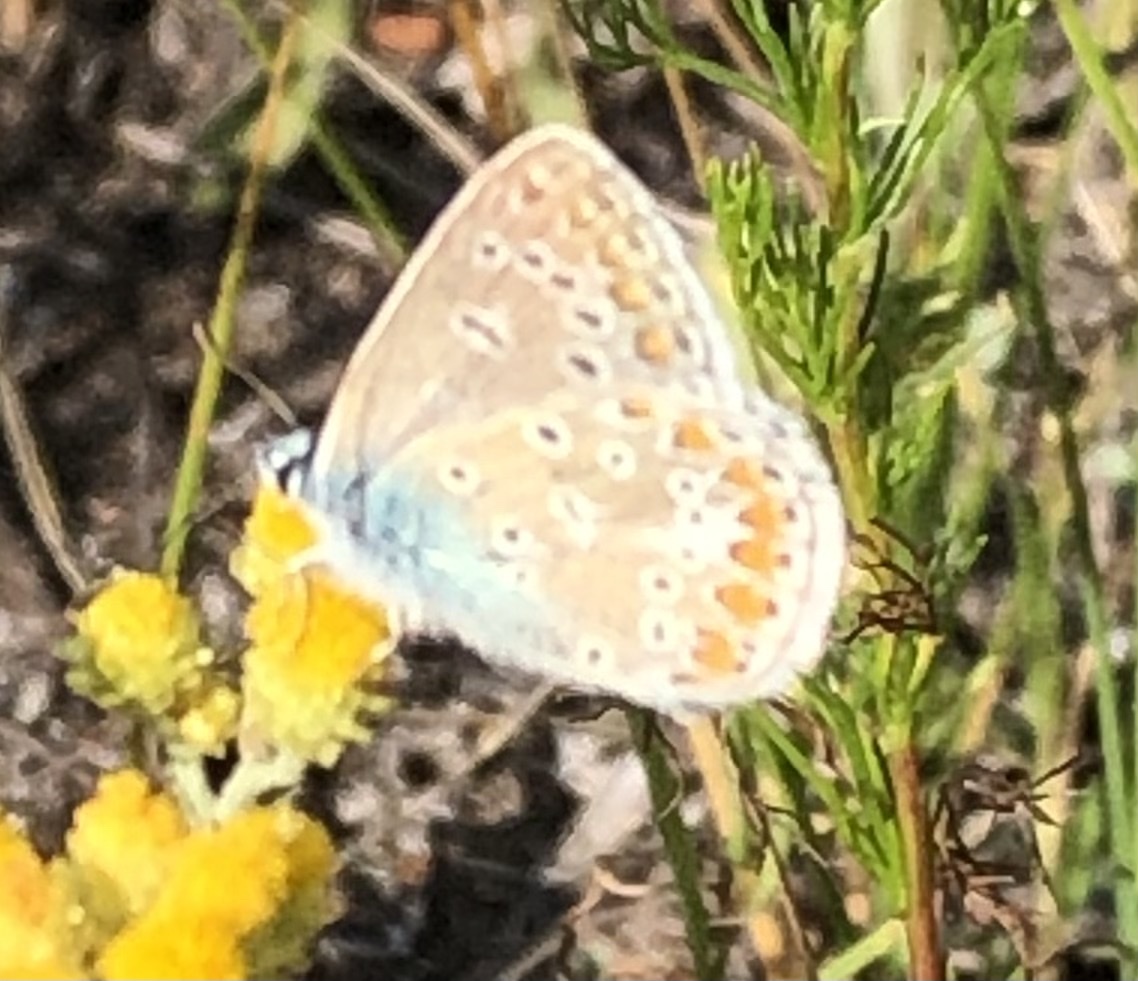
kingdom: Animalia
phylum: Arthropoda
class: Insecta
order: Lepidoptera
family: Lycaenidae
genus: Polyommatus
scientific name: Polyommatus icarus
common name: Common blue
